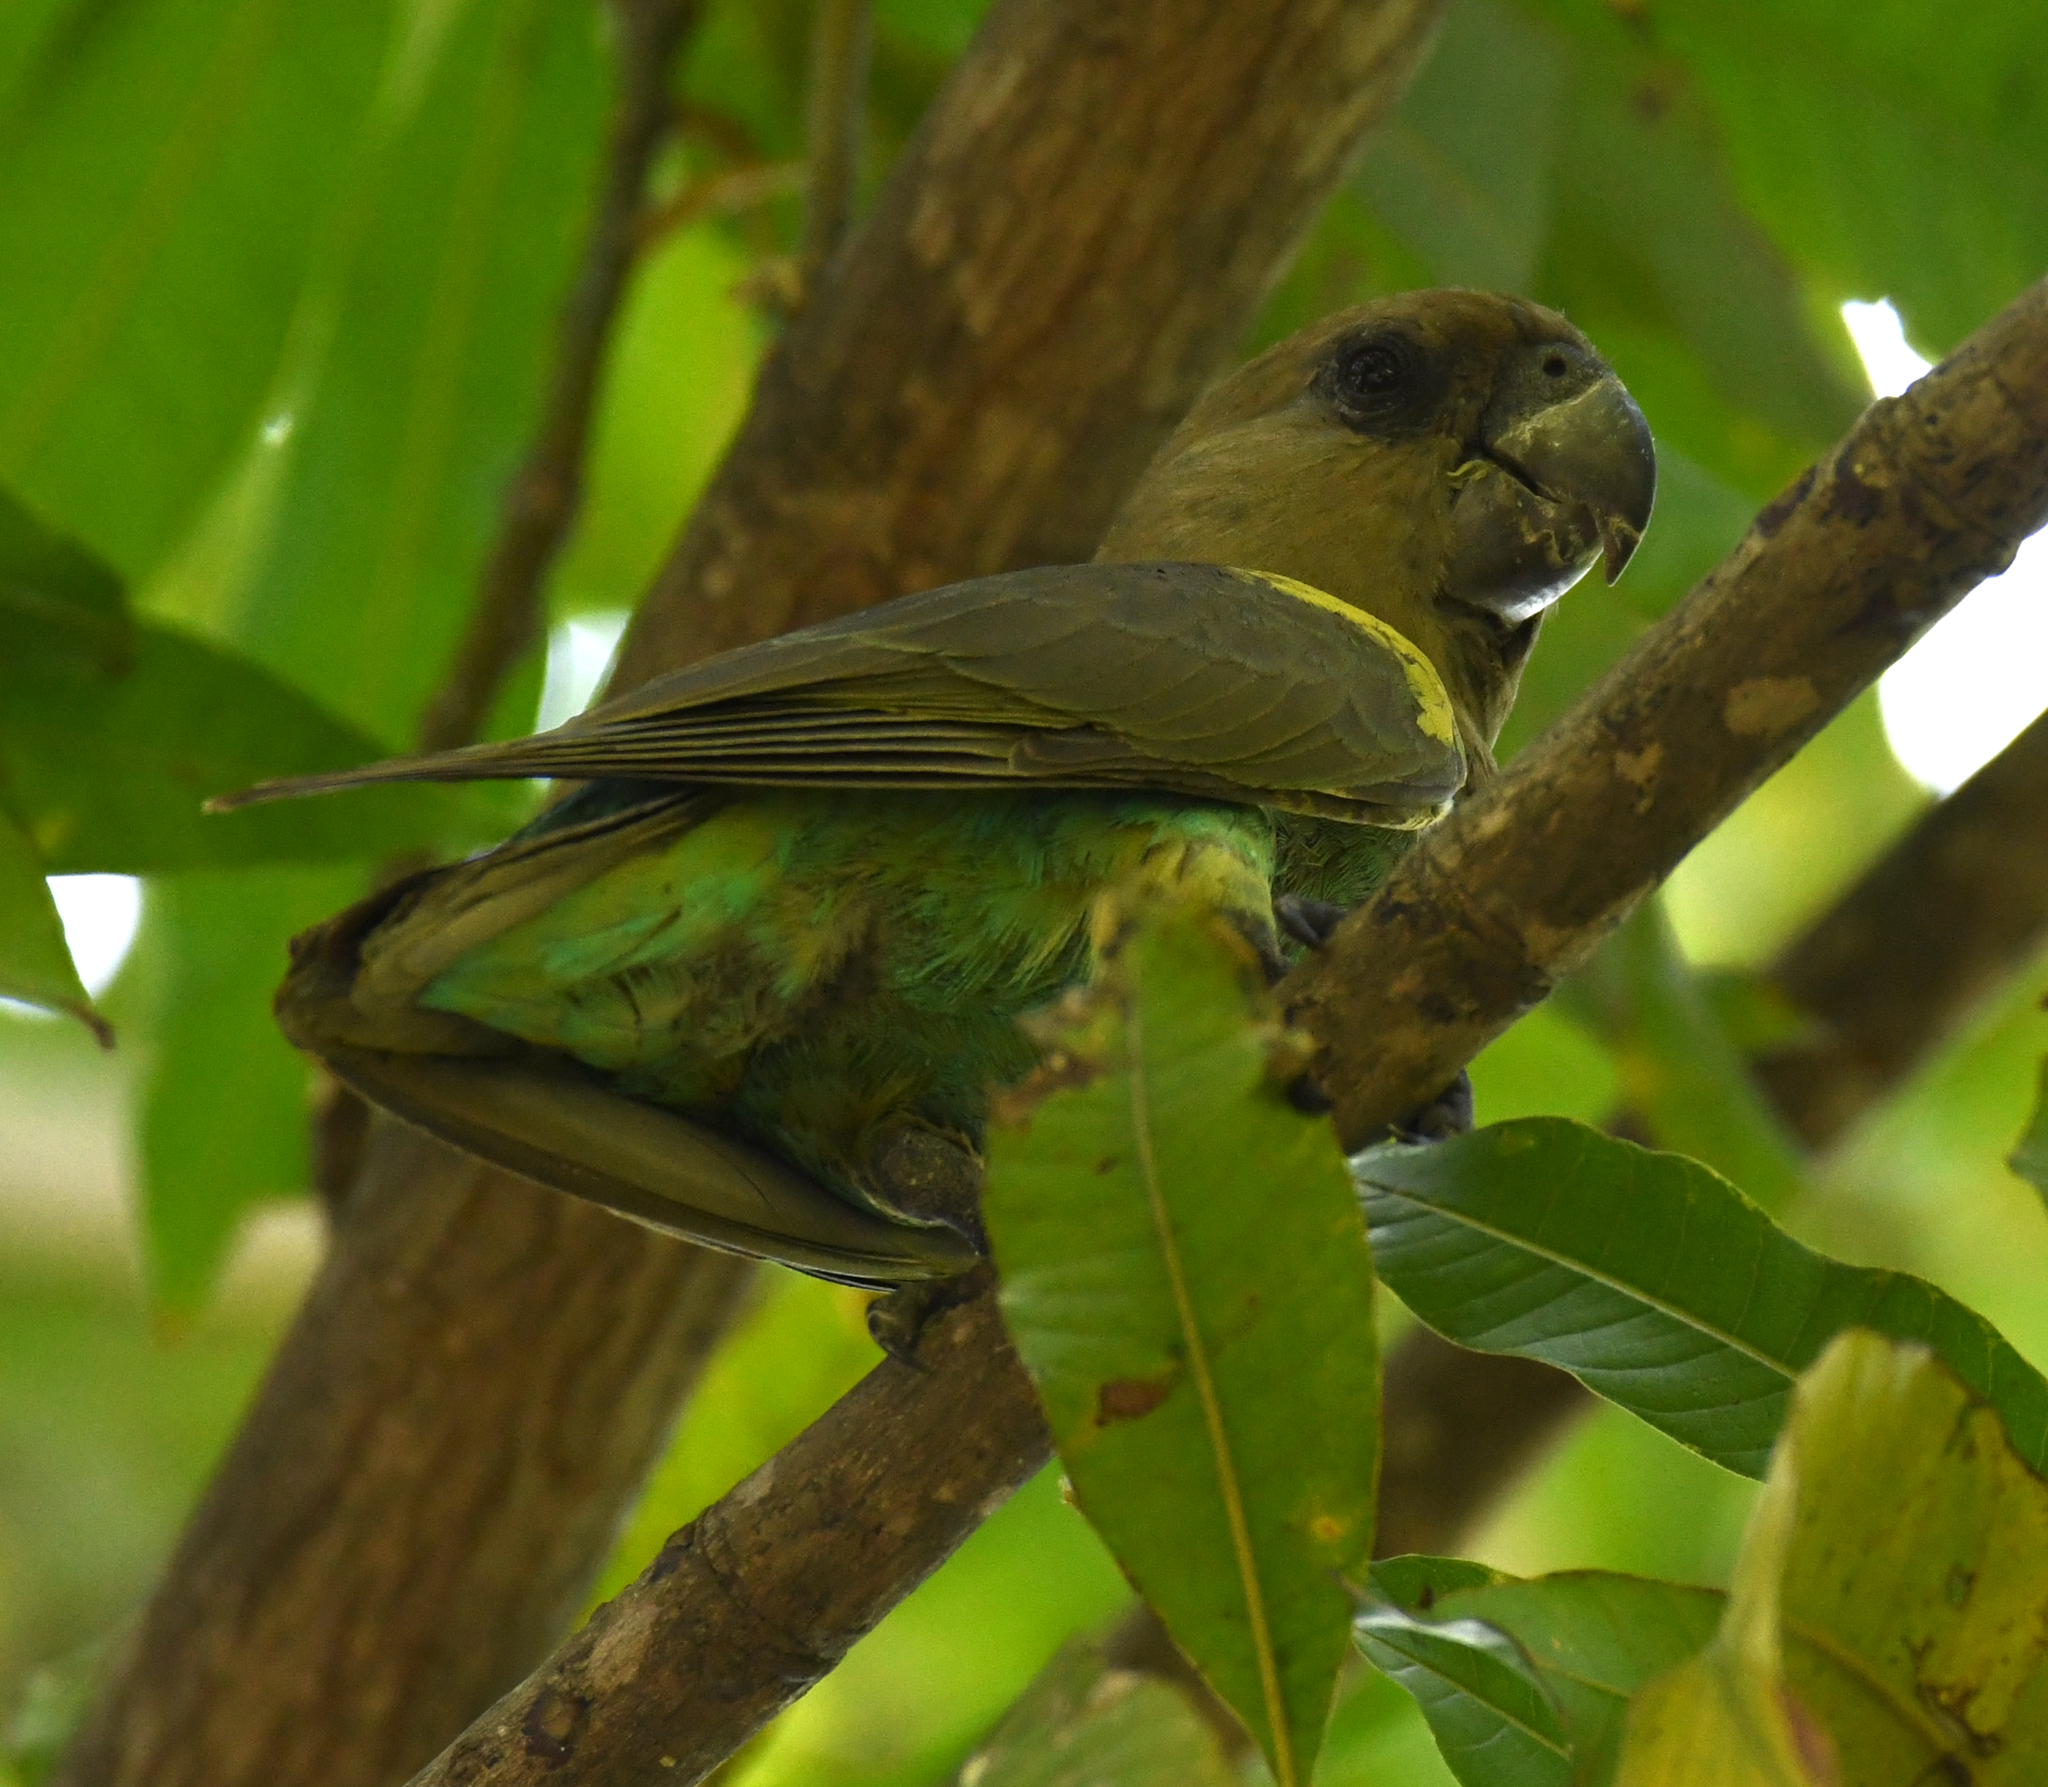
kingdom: Animalia
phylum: Chordata
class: Aves
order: Psittaciformes
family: Psittacidae
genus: Poicephalus
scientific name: Poicephalus meyeri
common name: Meyer's parrot
